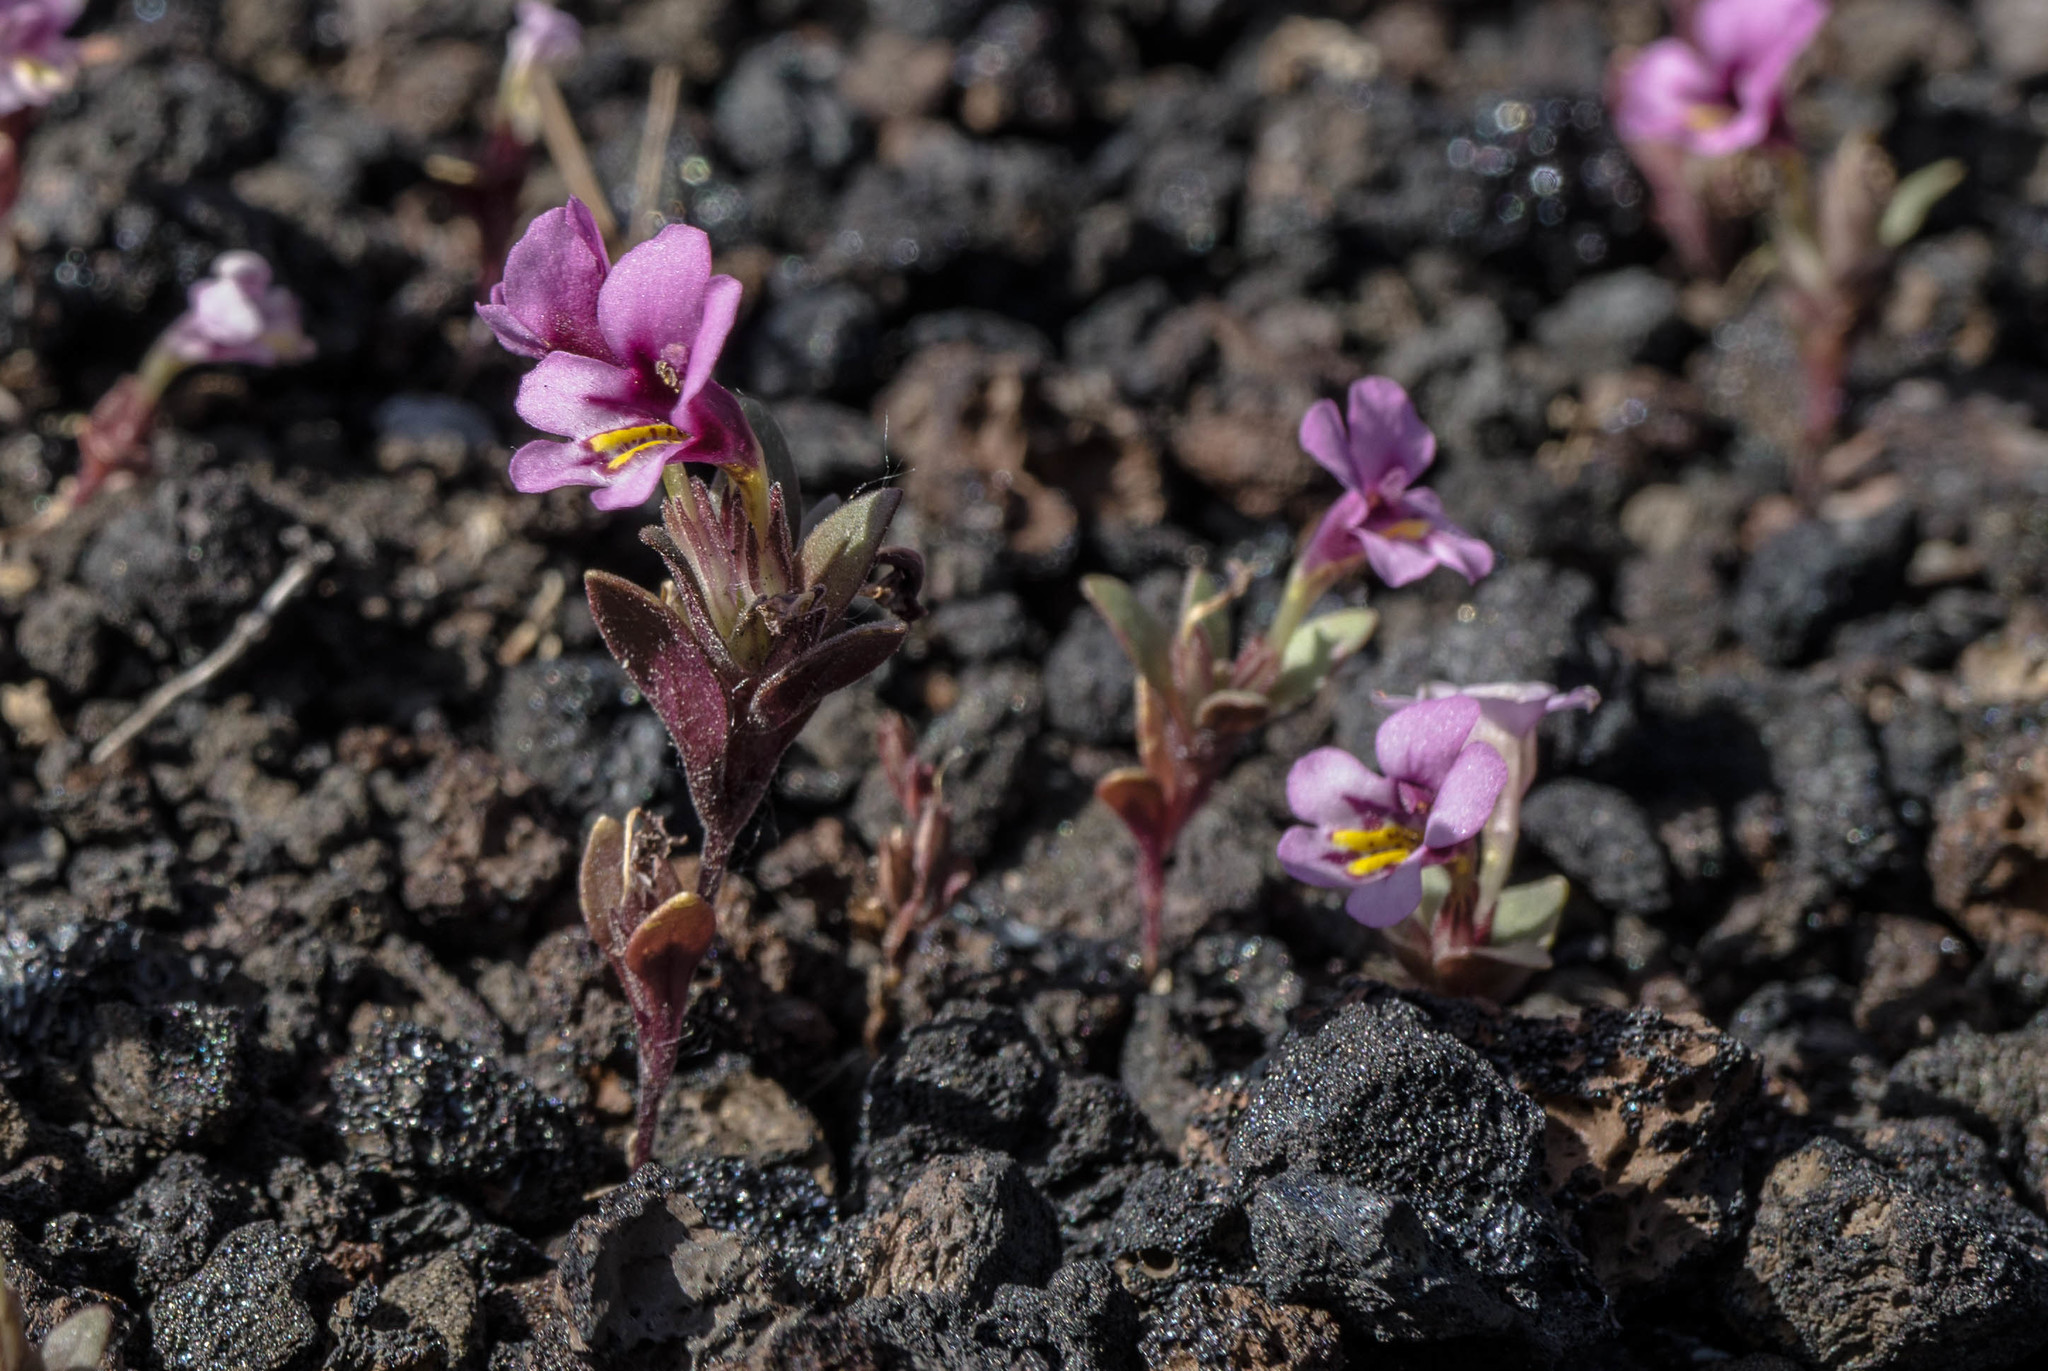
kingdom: Plantae
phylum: Tracheophyta
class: Magnoliopsida
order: Lamiales
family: Phrymaceae
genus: Diplacus
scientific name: Diplacus nanus
